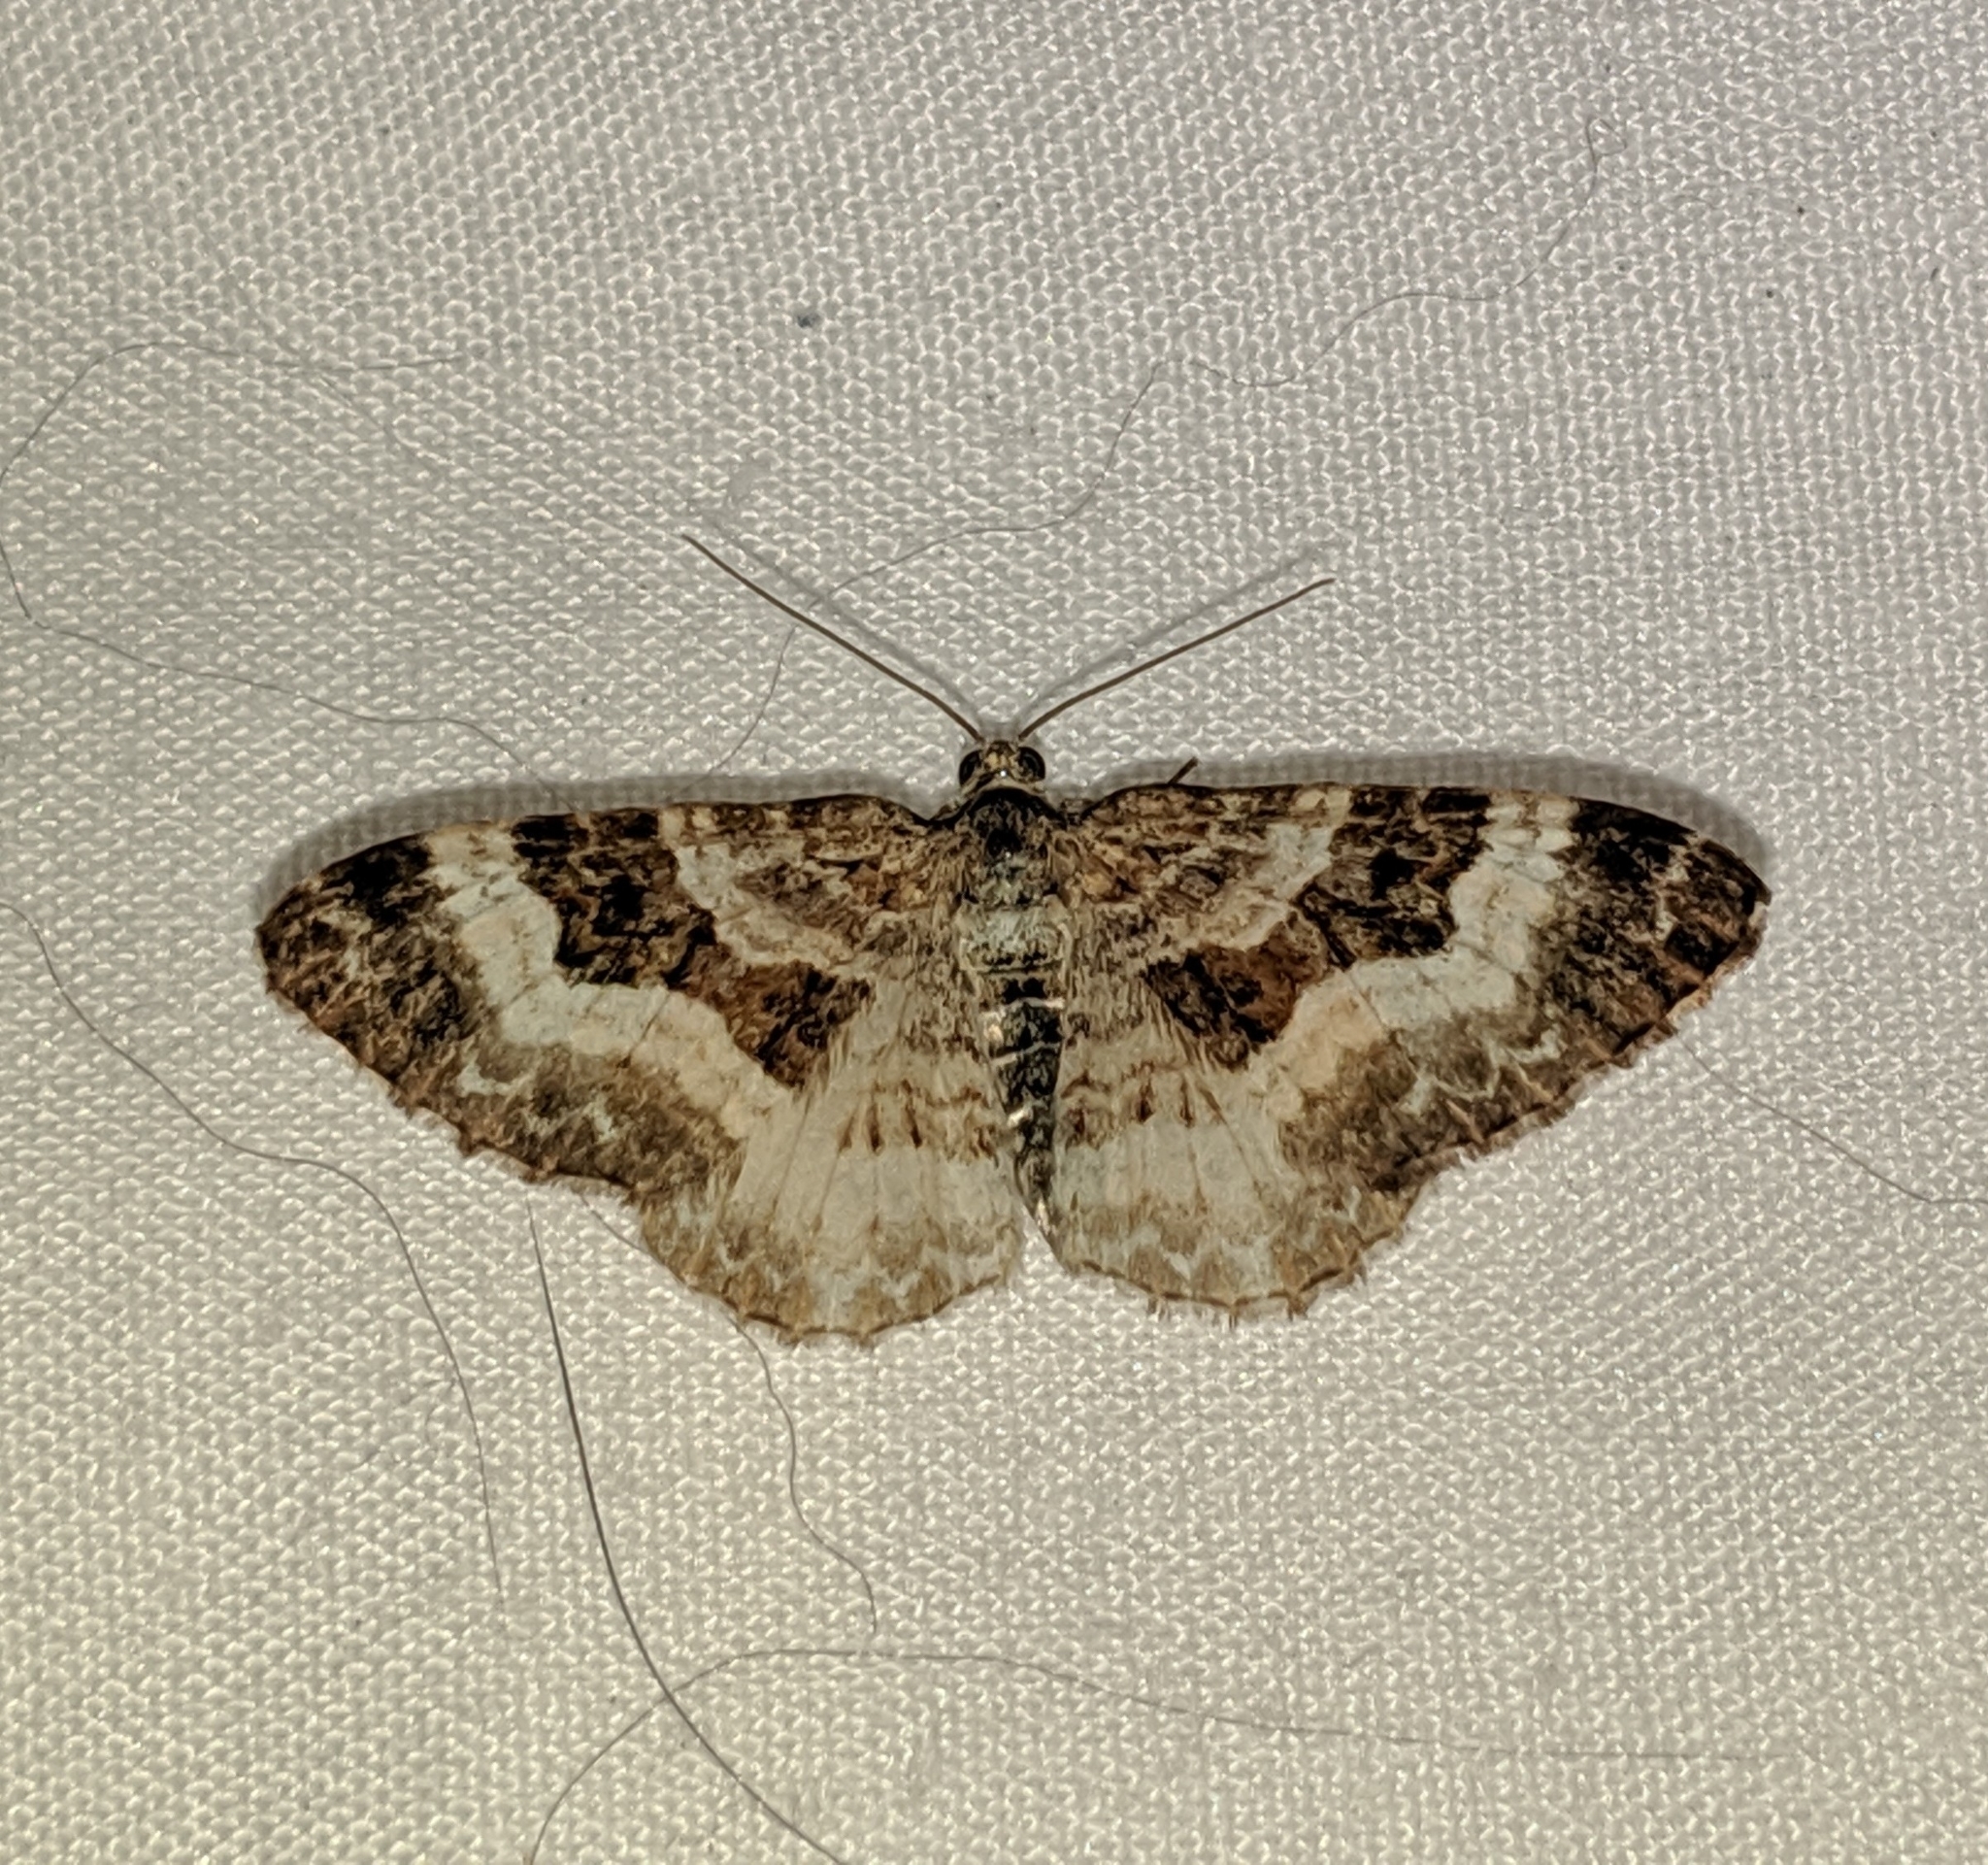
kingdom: Animalia
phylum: Arthropoda
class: Insecta
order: Lepidoptera
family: Geometridae
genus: Epirrhoe
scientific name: Epirrhoe alternata
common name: Common carpet
